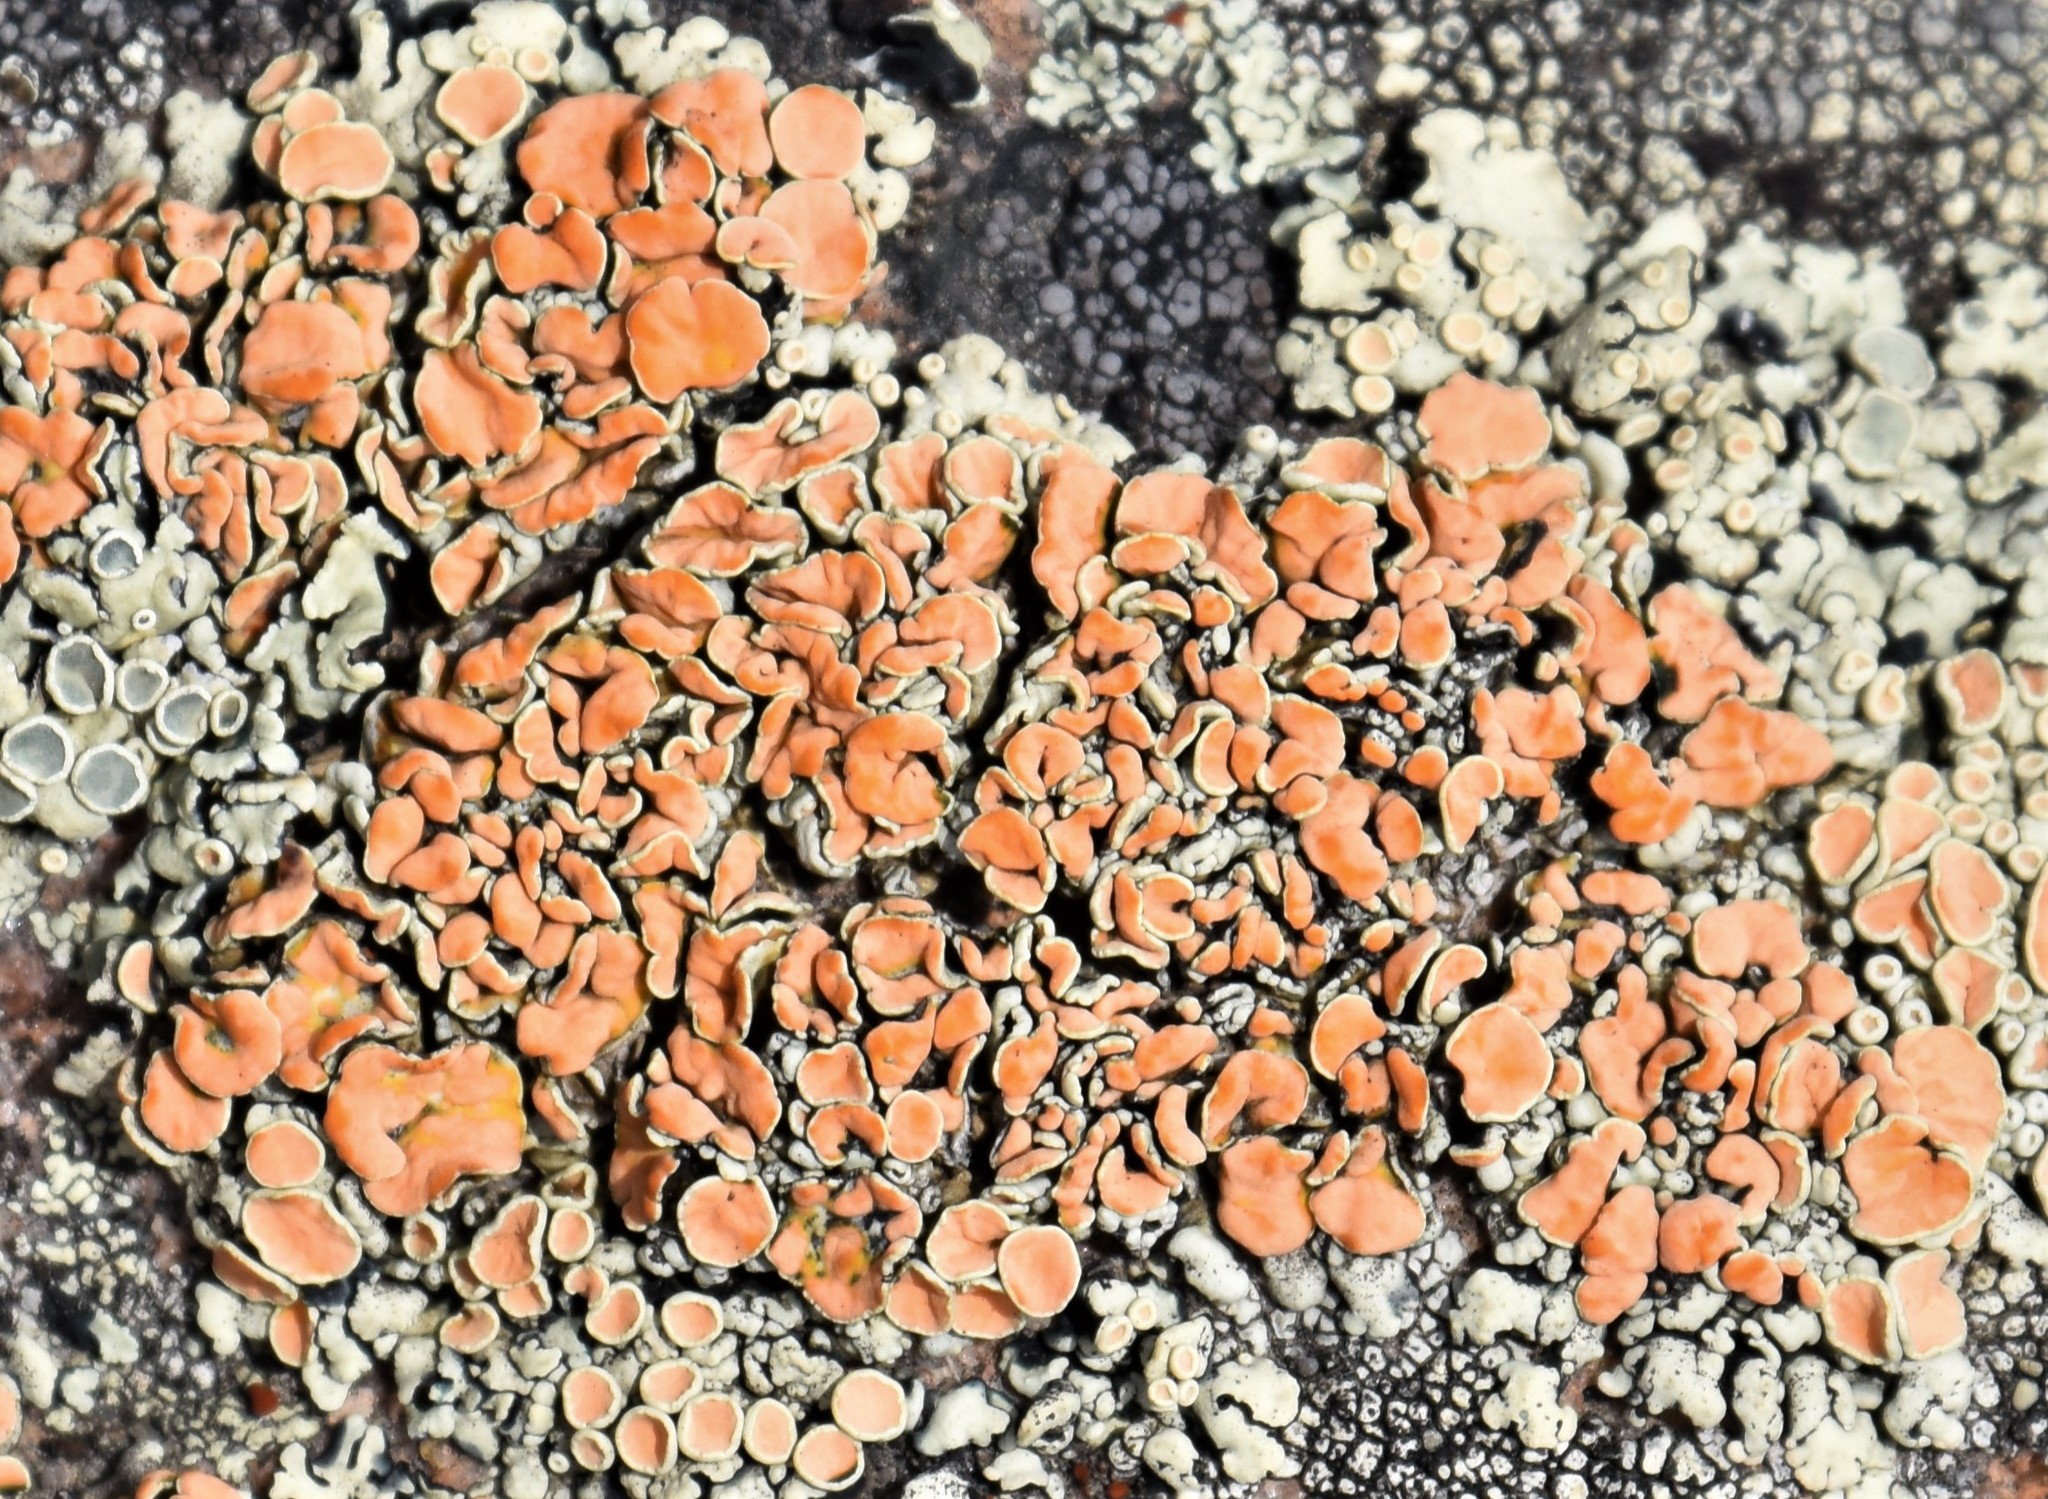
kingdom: Fungi
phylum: Ascomycota
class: Lecanoromycetes
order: Lecanorales
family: Lecanoraceae
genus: Omphalodina
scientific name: Omphalodina chrysoleuca
